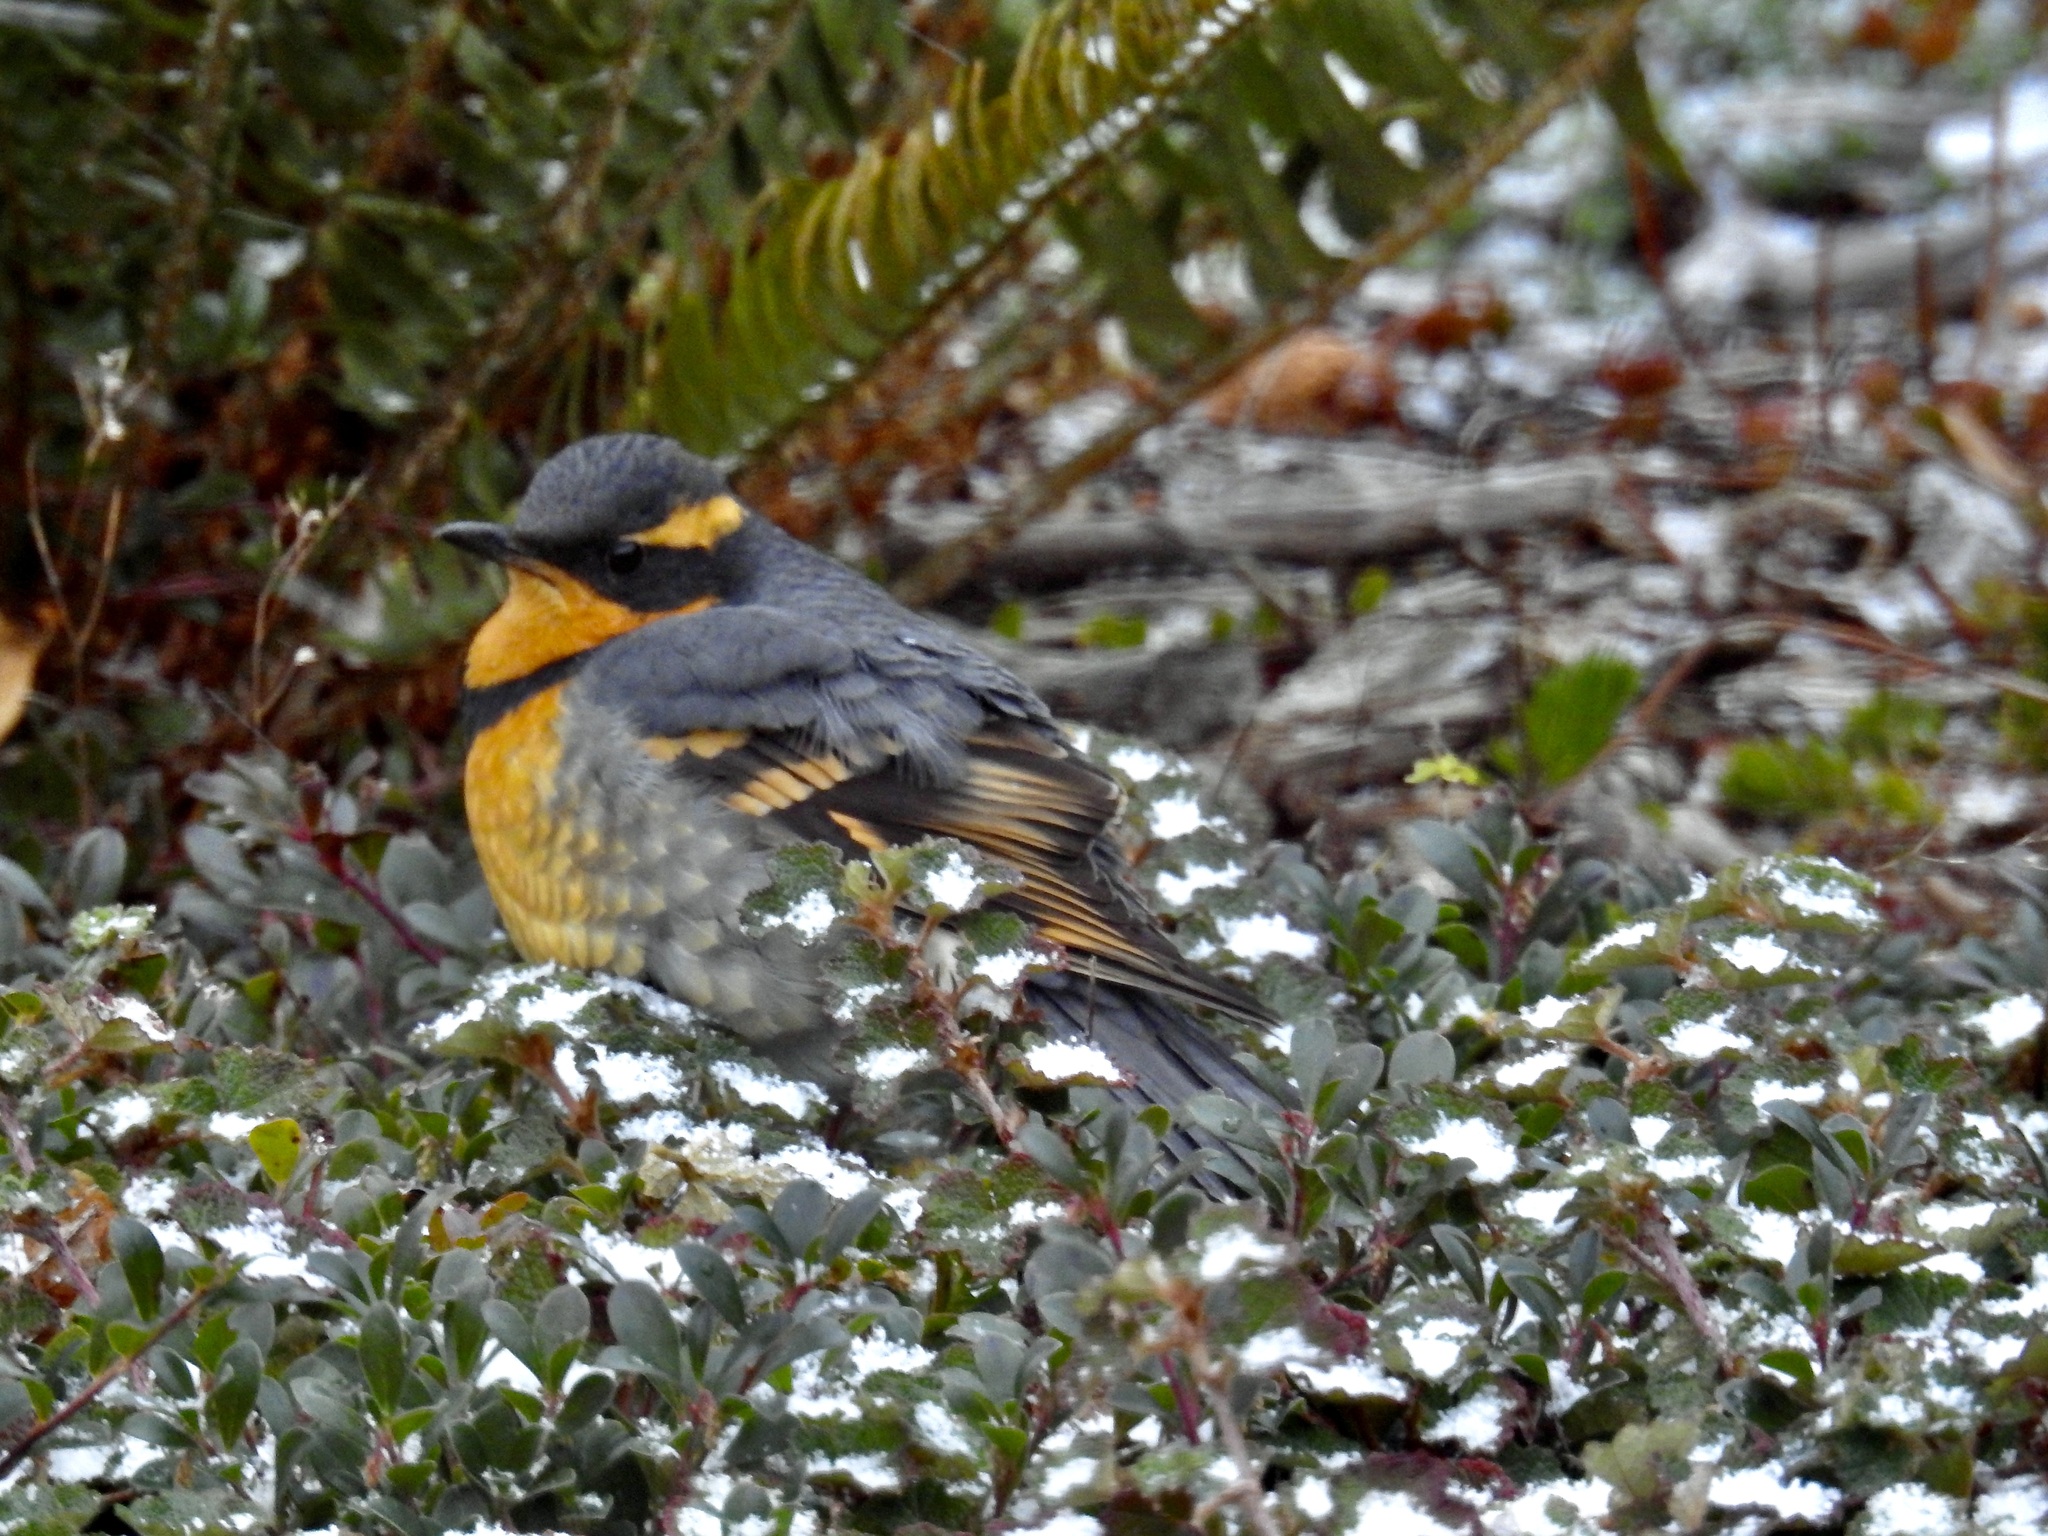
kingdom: Animalia
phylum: Chordata
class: Aves
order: Passeriformes
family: Turdidae
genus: Ixoreus
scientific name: Ixoreus naevius
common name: Varied thrush
